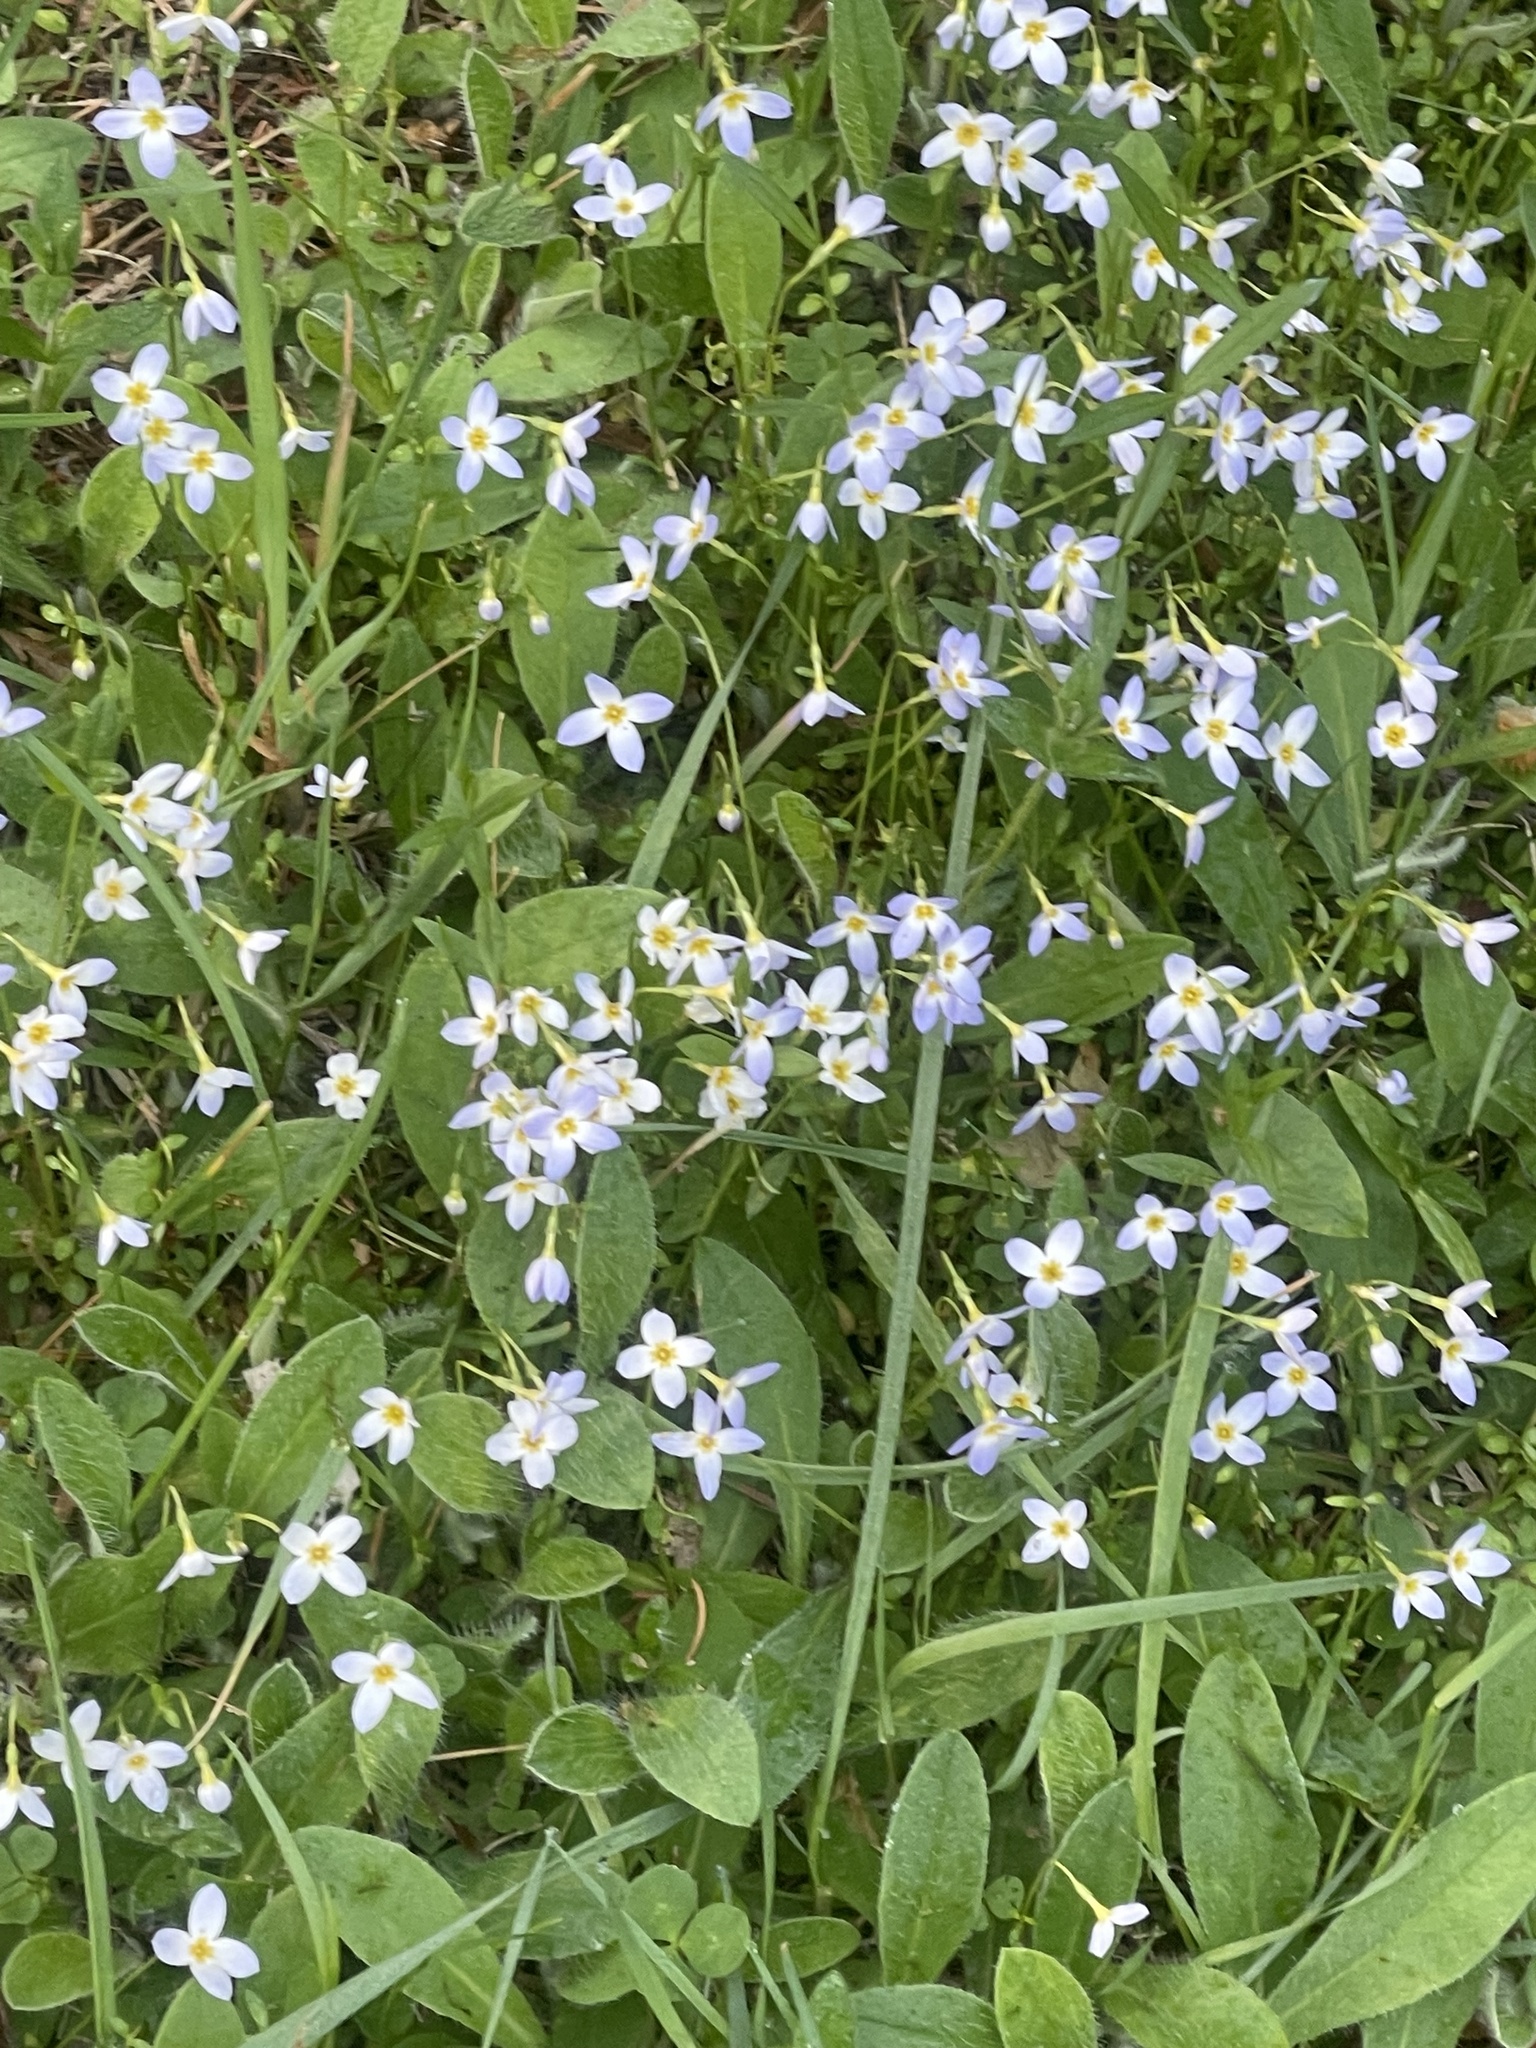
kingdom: Plantae
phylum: Tracheophyta
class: Magnoliopsida
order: Gentianales
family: Rubiaceae
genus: Houstonia
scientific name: Houstonia caerulea
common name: Bluets
